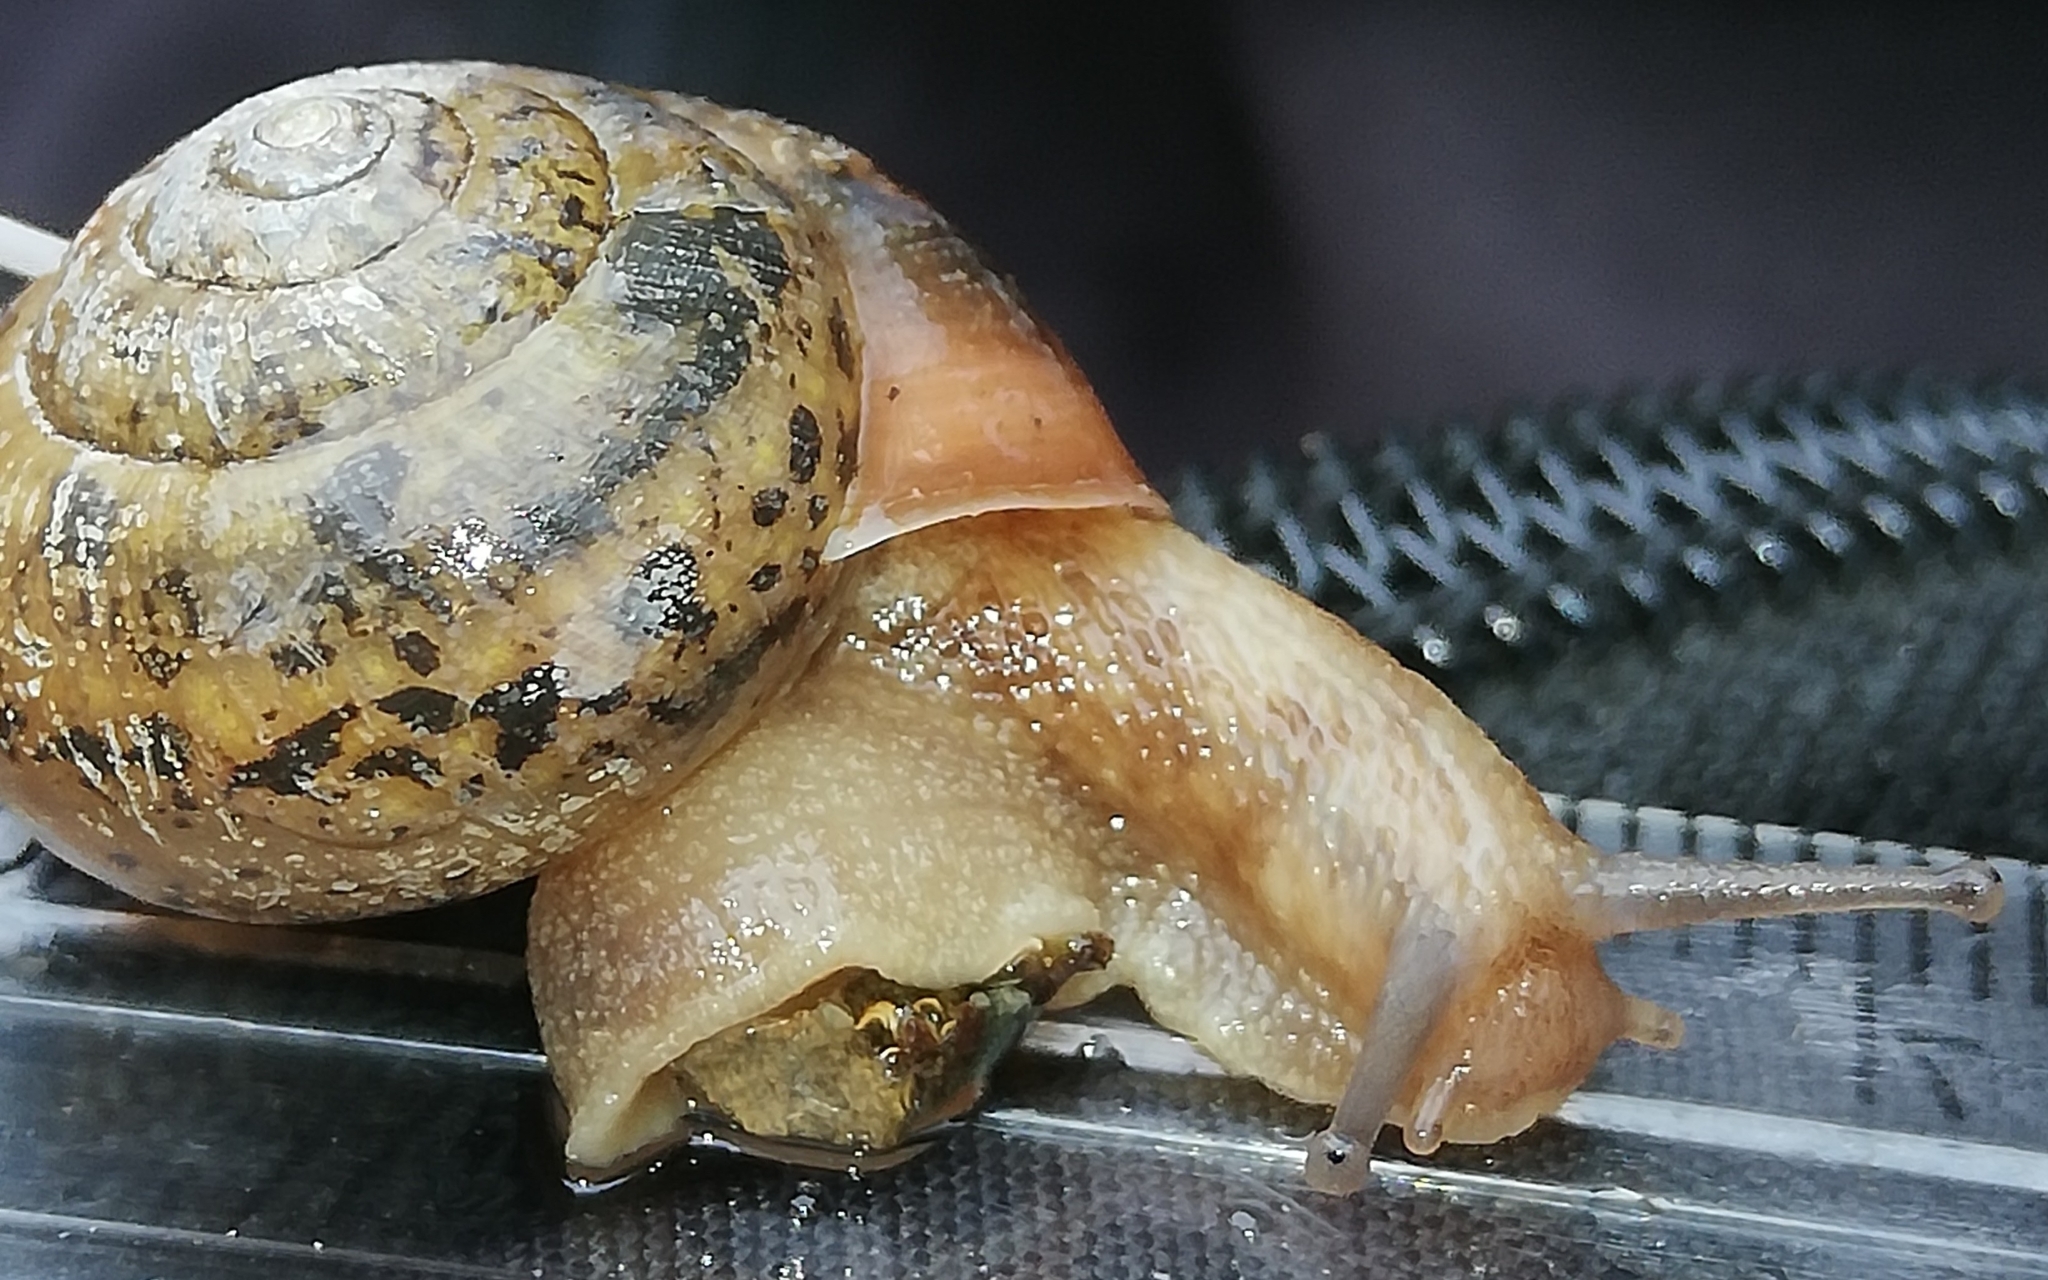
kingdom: Animalia
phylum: Mollusca
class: Gastropoda
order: Stylommatophora
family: Camaenidae
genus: Fruticicola
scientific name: Fruticicola fruticum
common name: Bush snail
